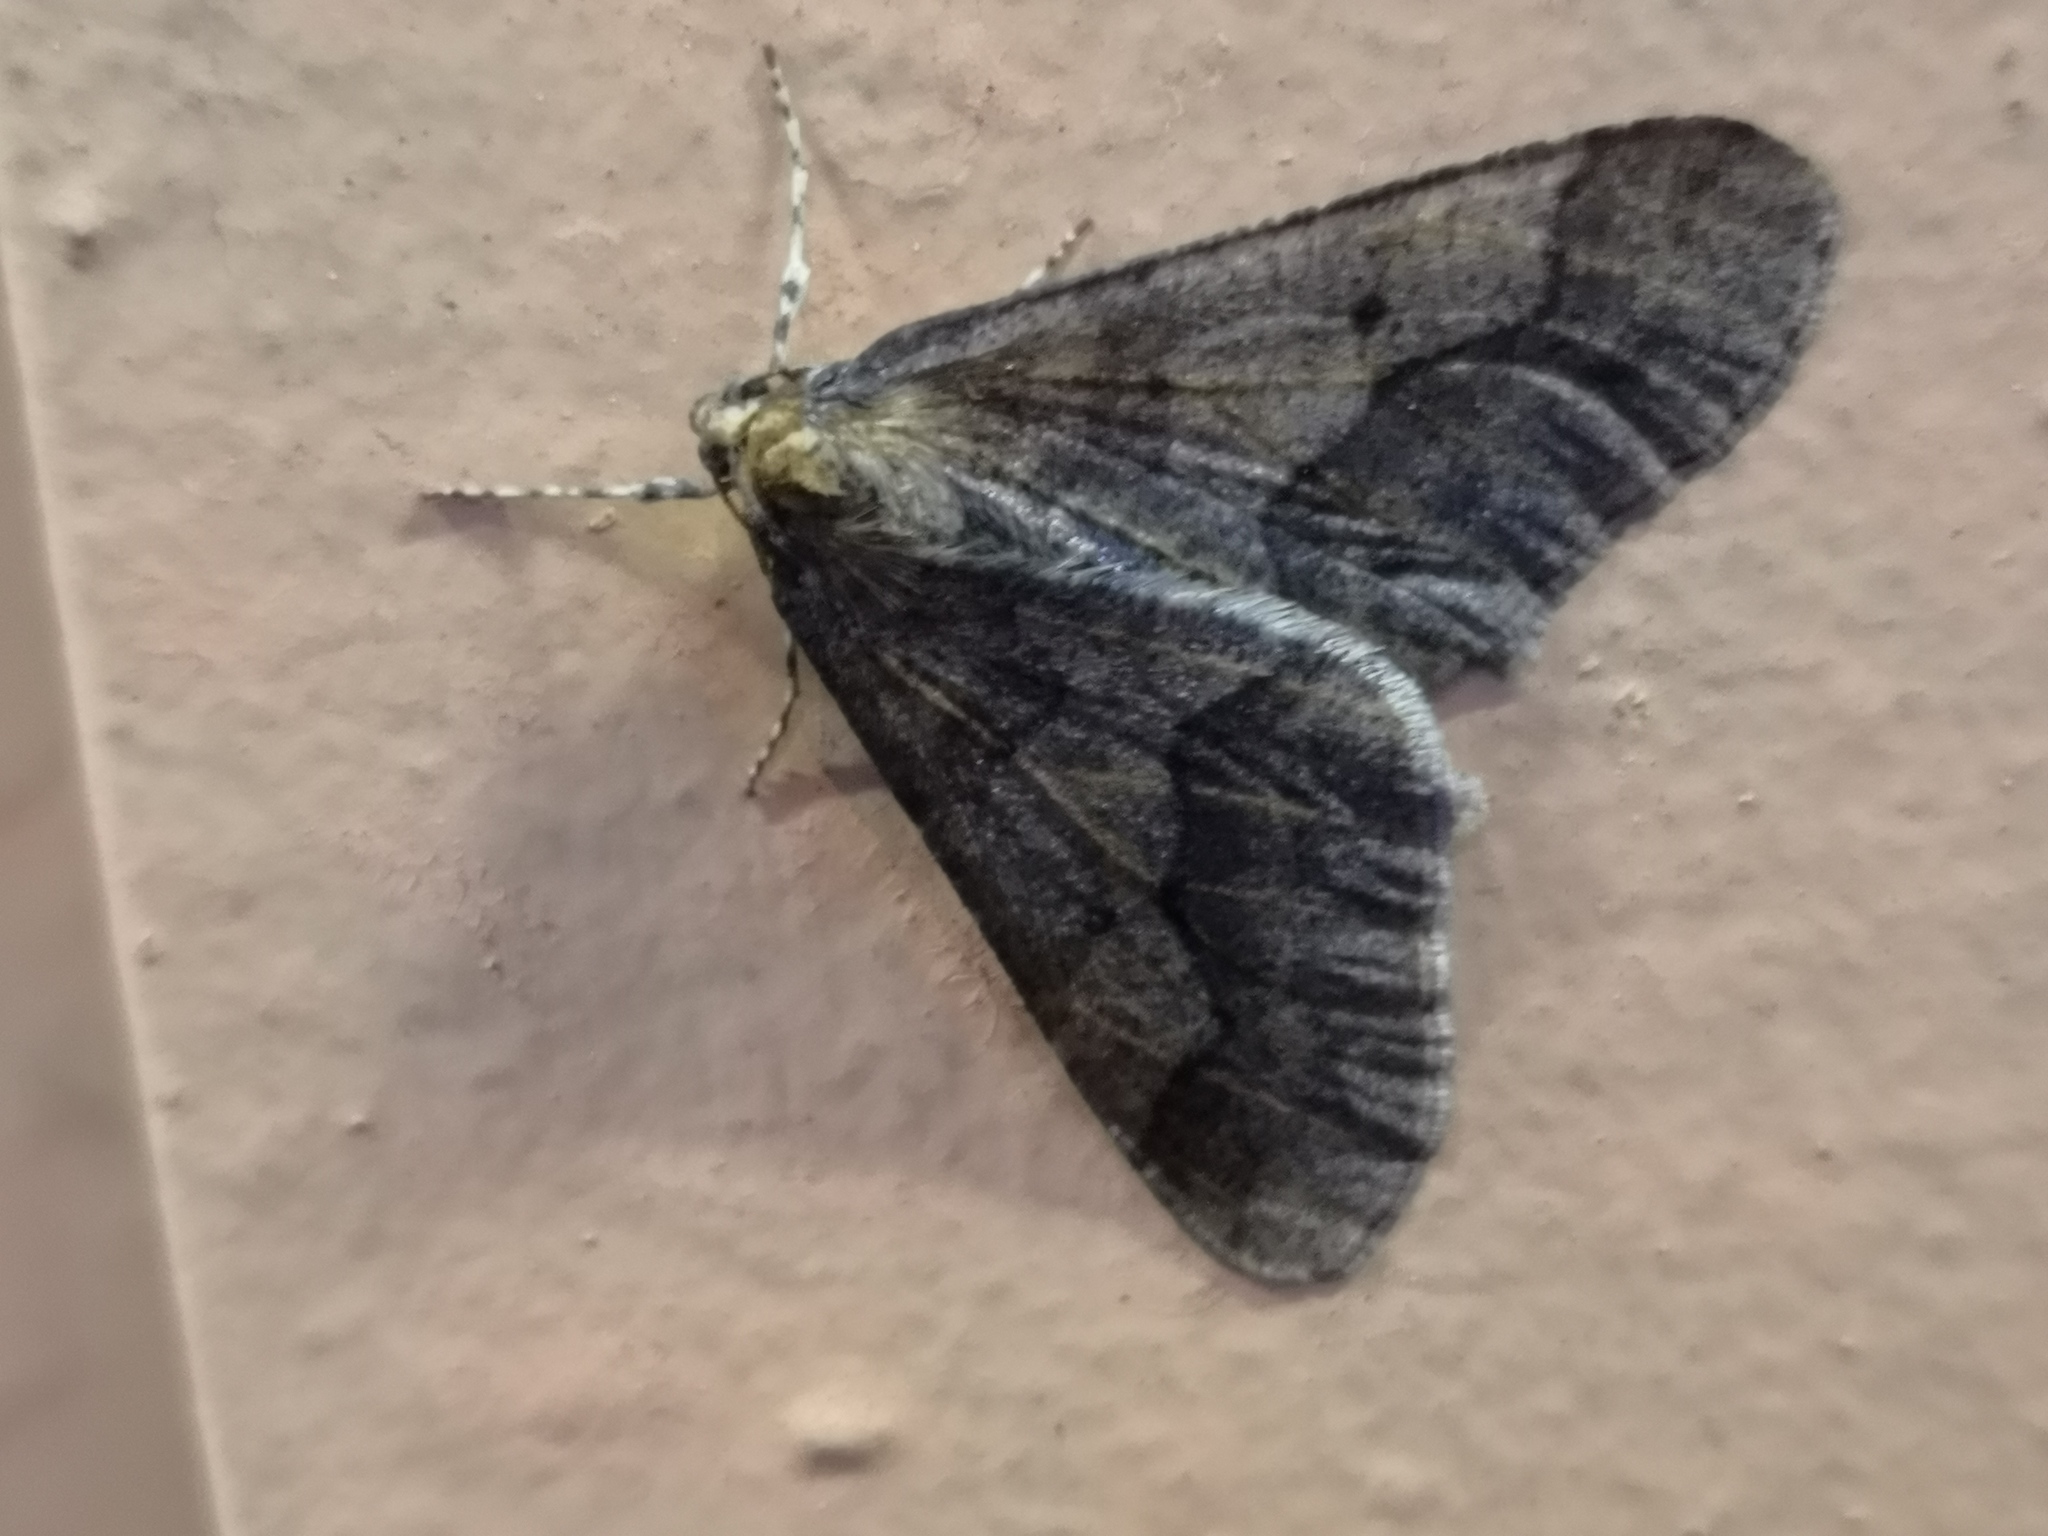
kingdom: Animalia
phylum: Arthropoda
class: Insecta
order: Lepidoptera
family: Geometridae
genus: Erannis
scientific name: Erannis defoliaria
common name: Mottled umber
